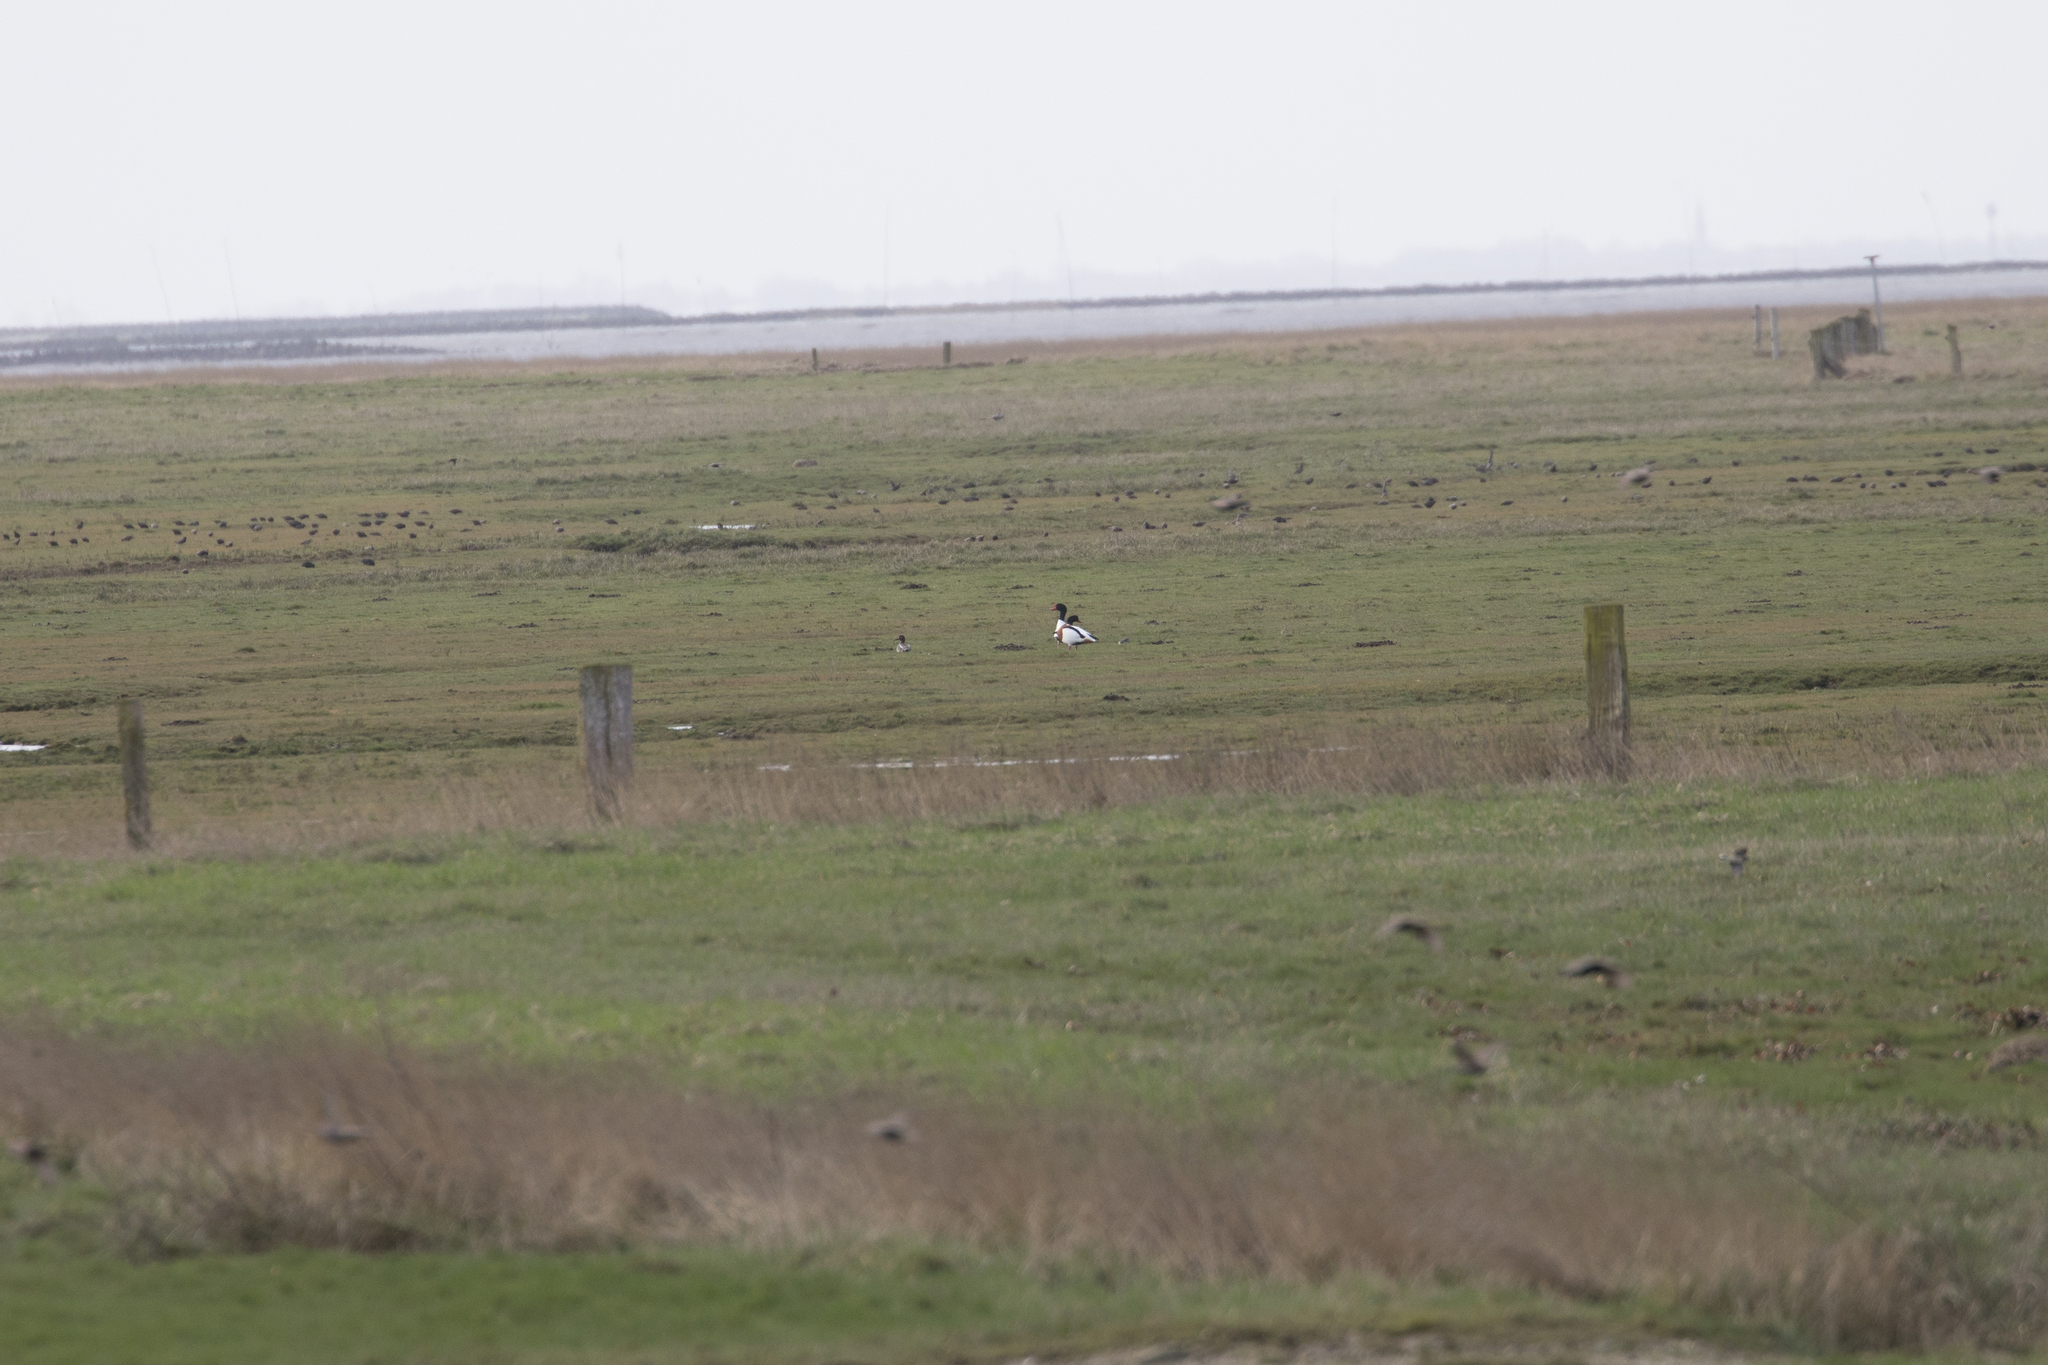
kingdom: Animalia
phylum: Chordata
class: Aves
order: Anseriformes
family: Anatidae
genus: Tadorna
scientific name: Tadorna tadorna
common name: Common shelduck
